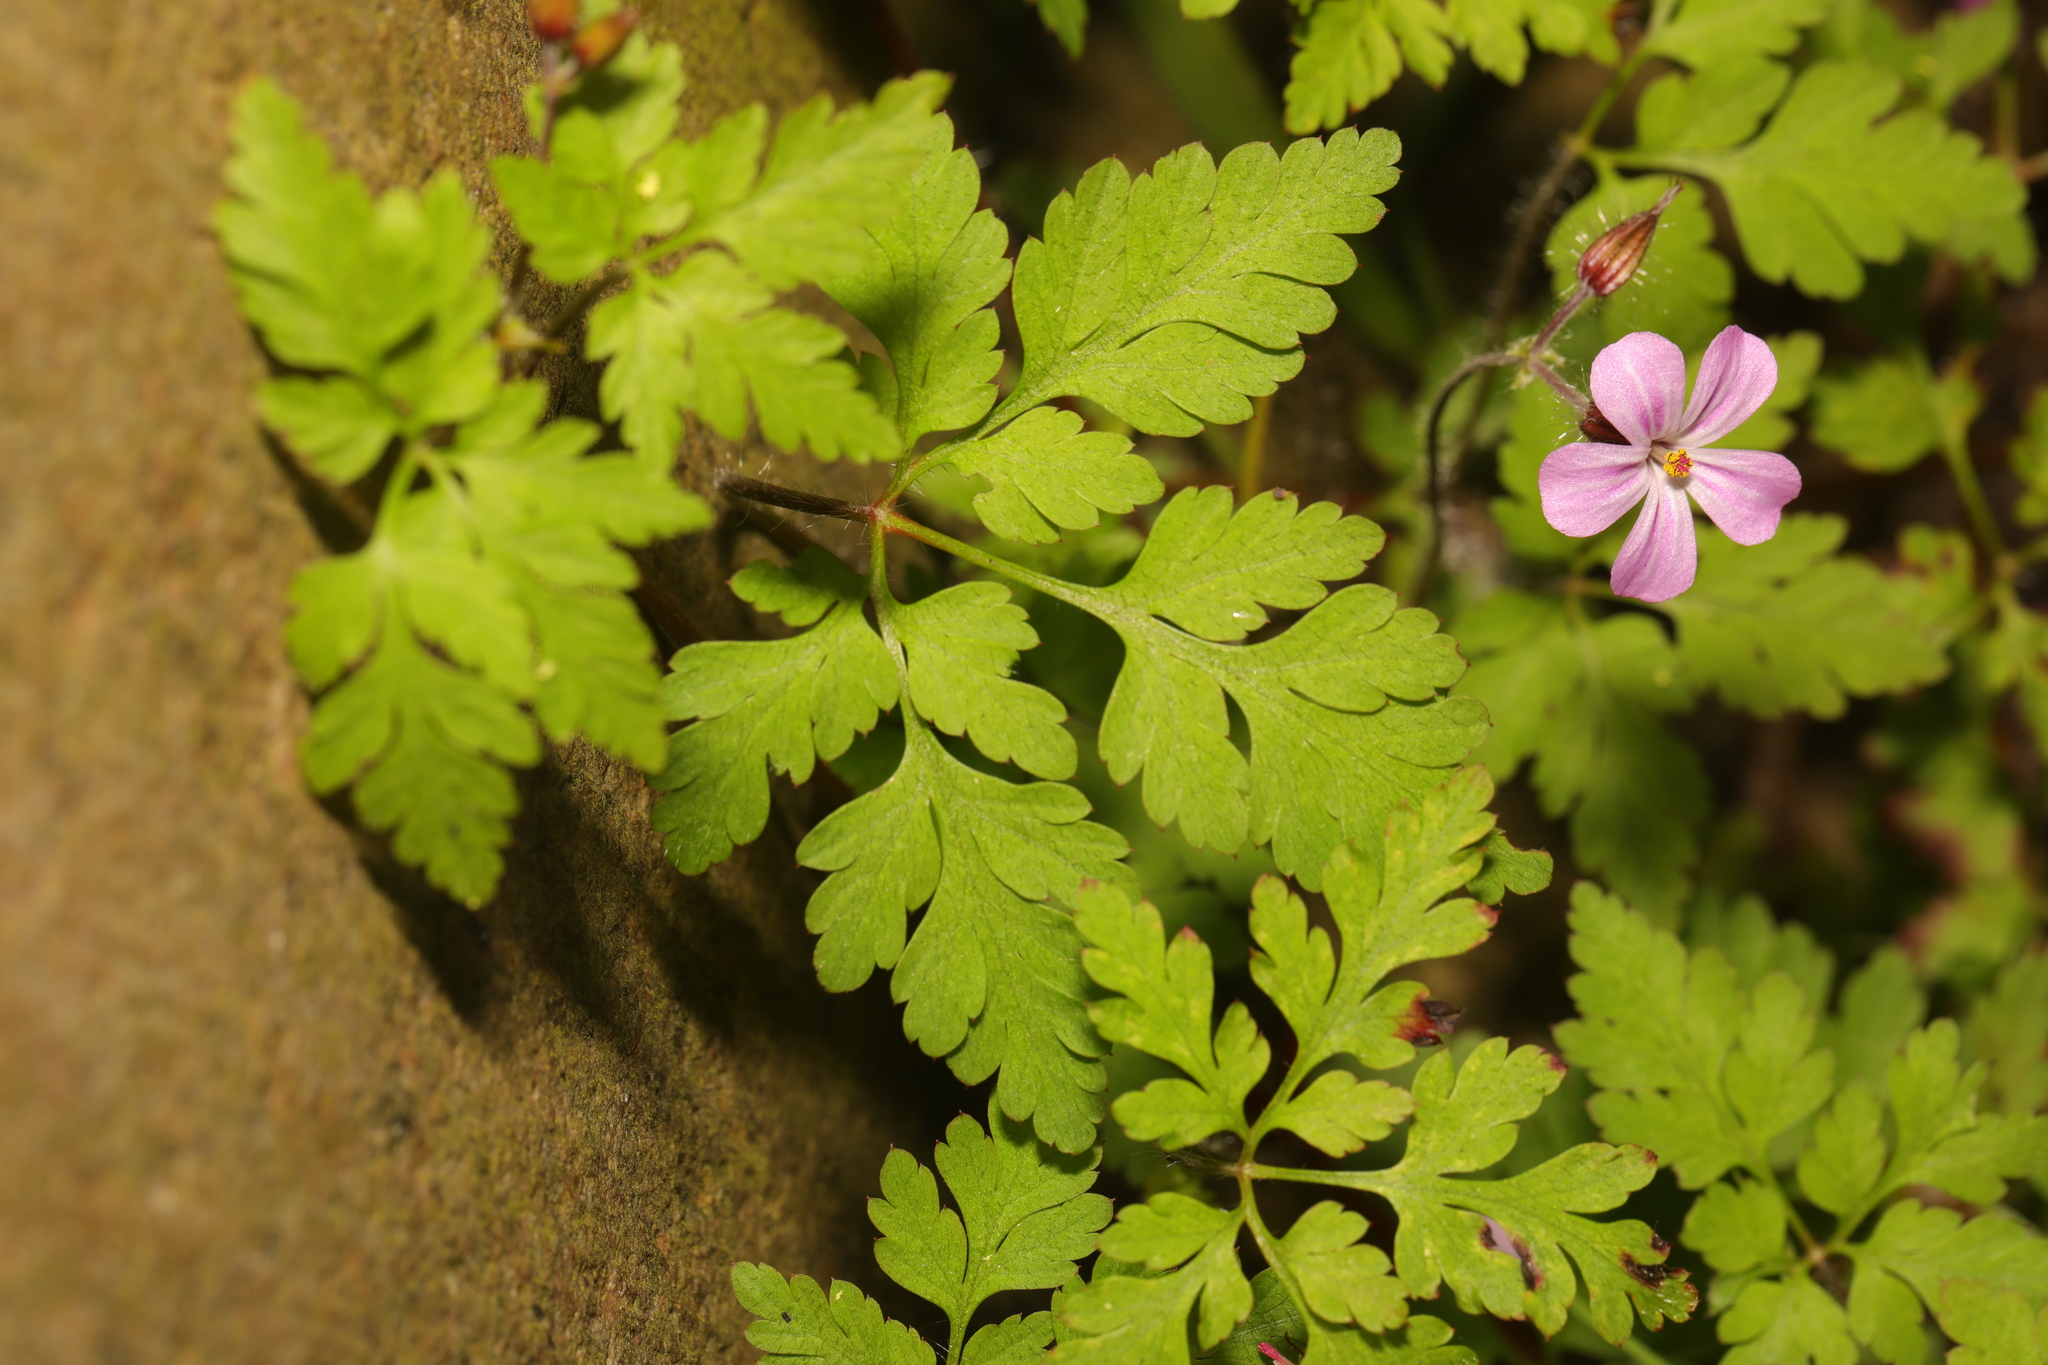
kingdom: Plantae
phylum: Tracheophyta
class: Magnoliopsida
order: Geraniales
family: Geraniaceae
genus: Geranium
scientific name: Geranium robertianum
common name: Herb-robert
